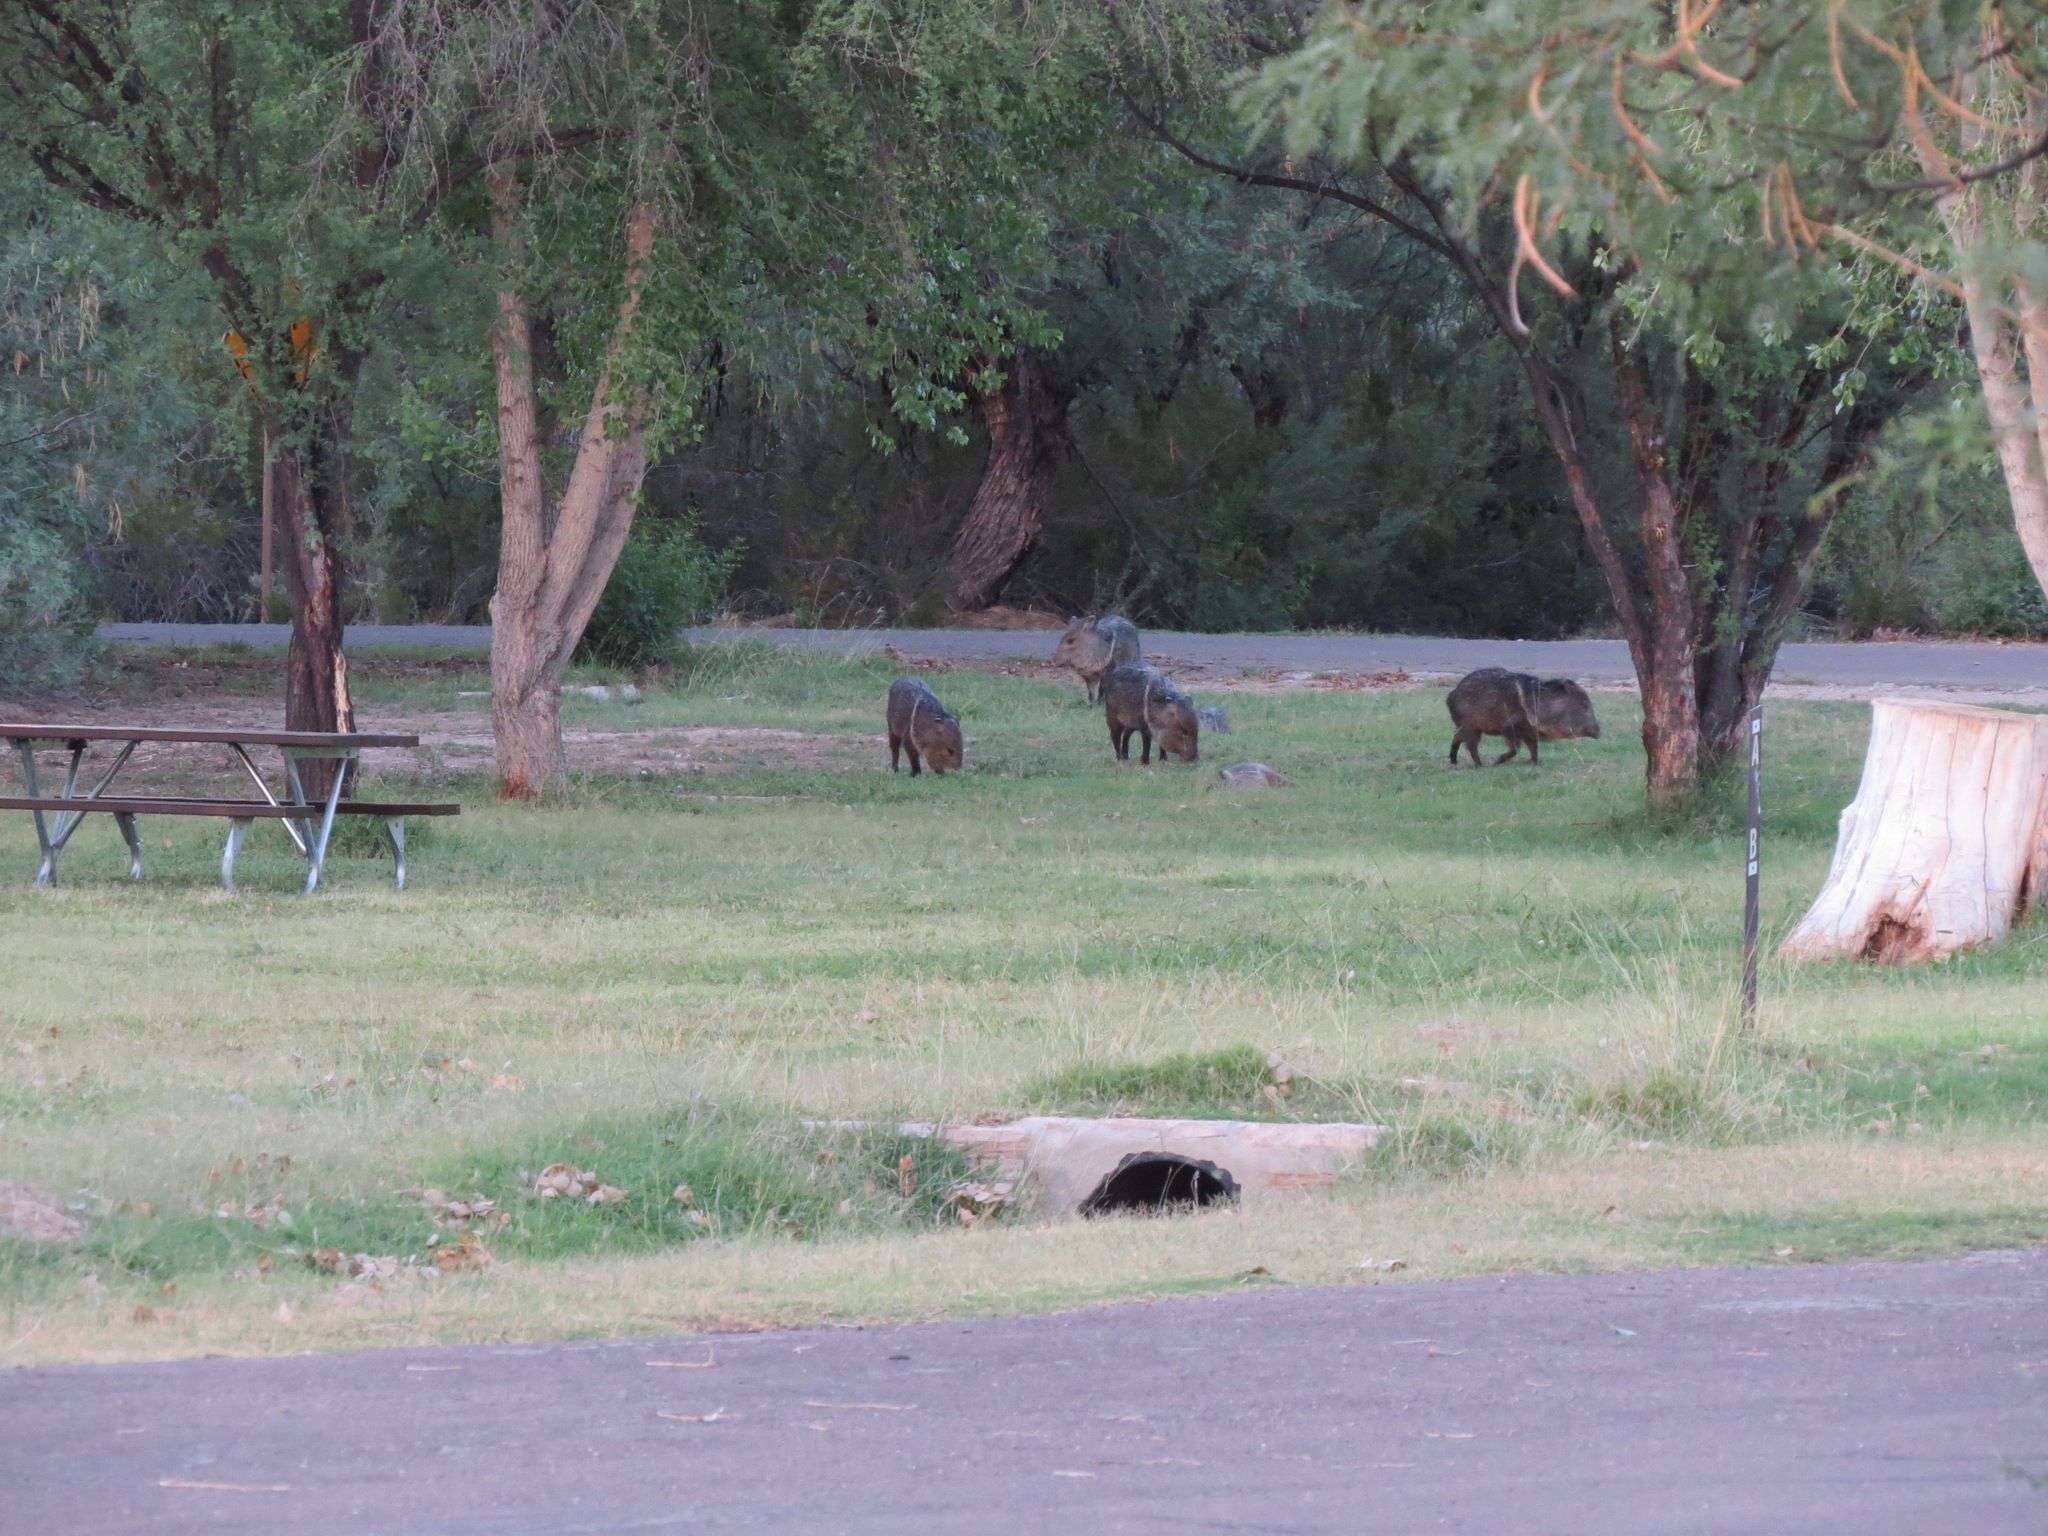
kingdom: Animalia
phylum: Chordata
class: Mammalia
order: Artiodactyla
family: Tayassuidae
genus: Pecari
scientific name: Pecari tajacu
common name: Collared peccary
